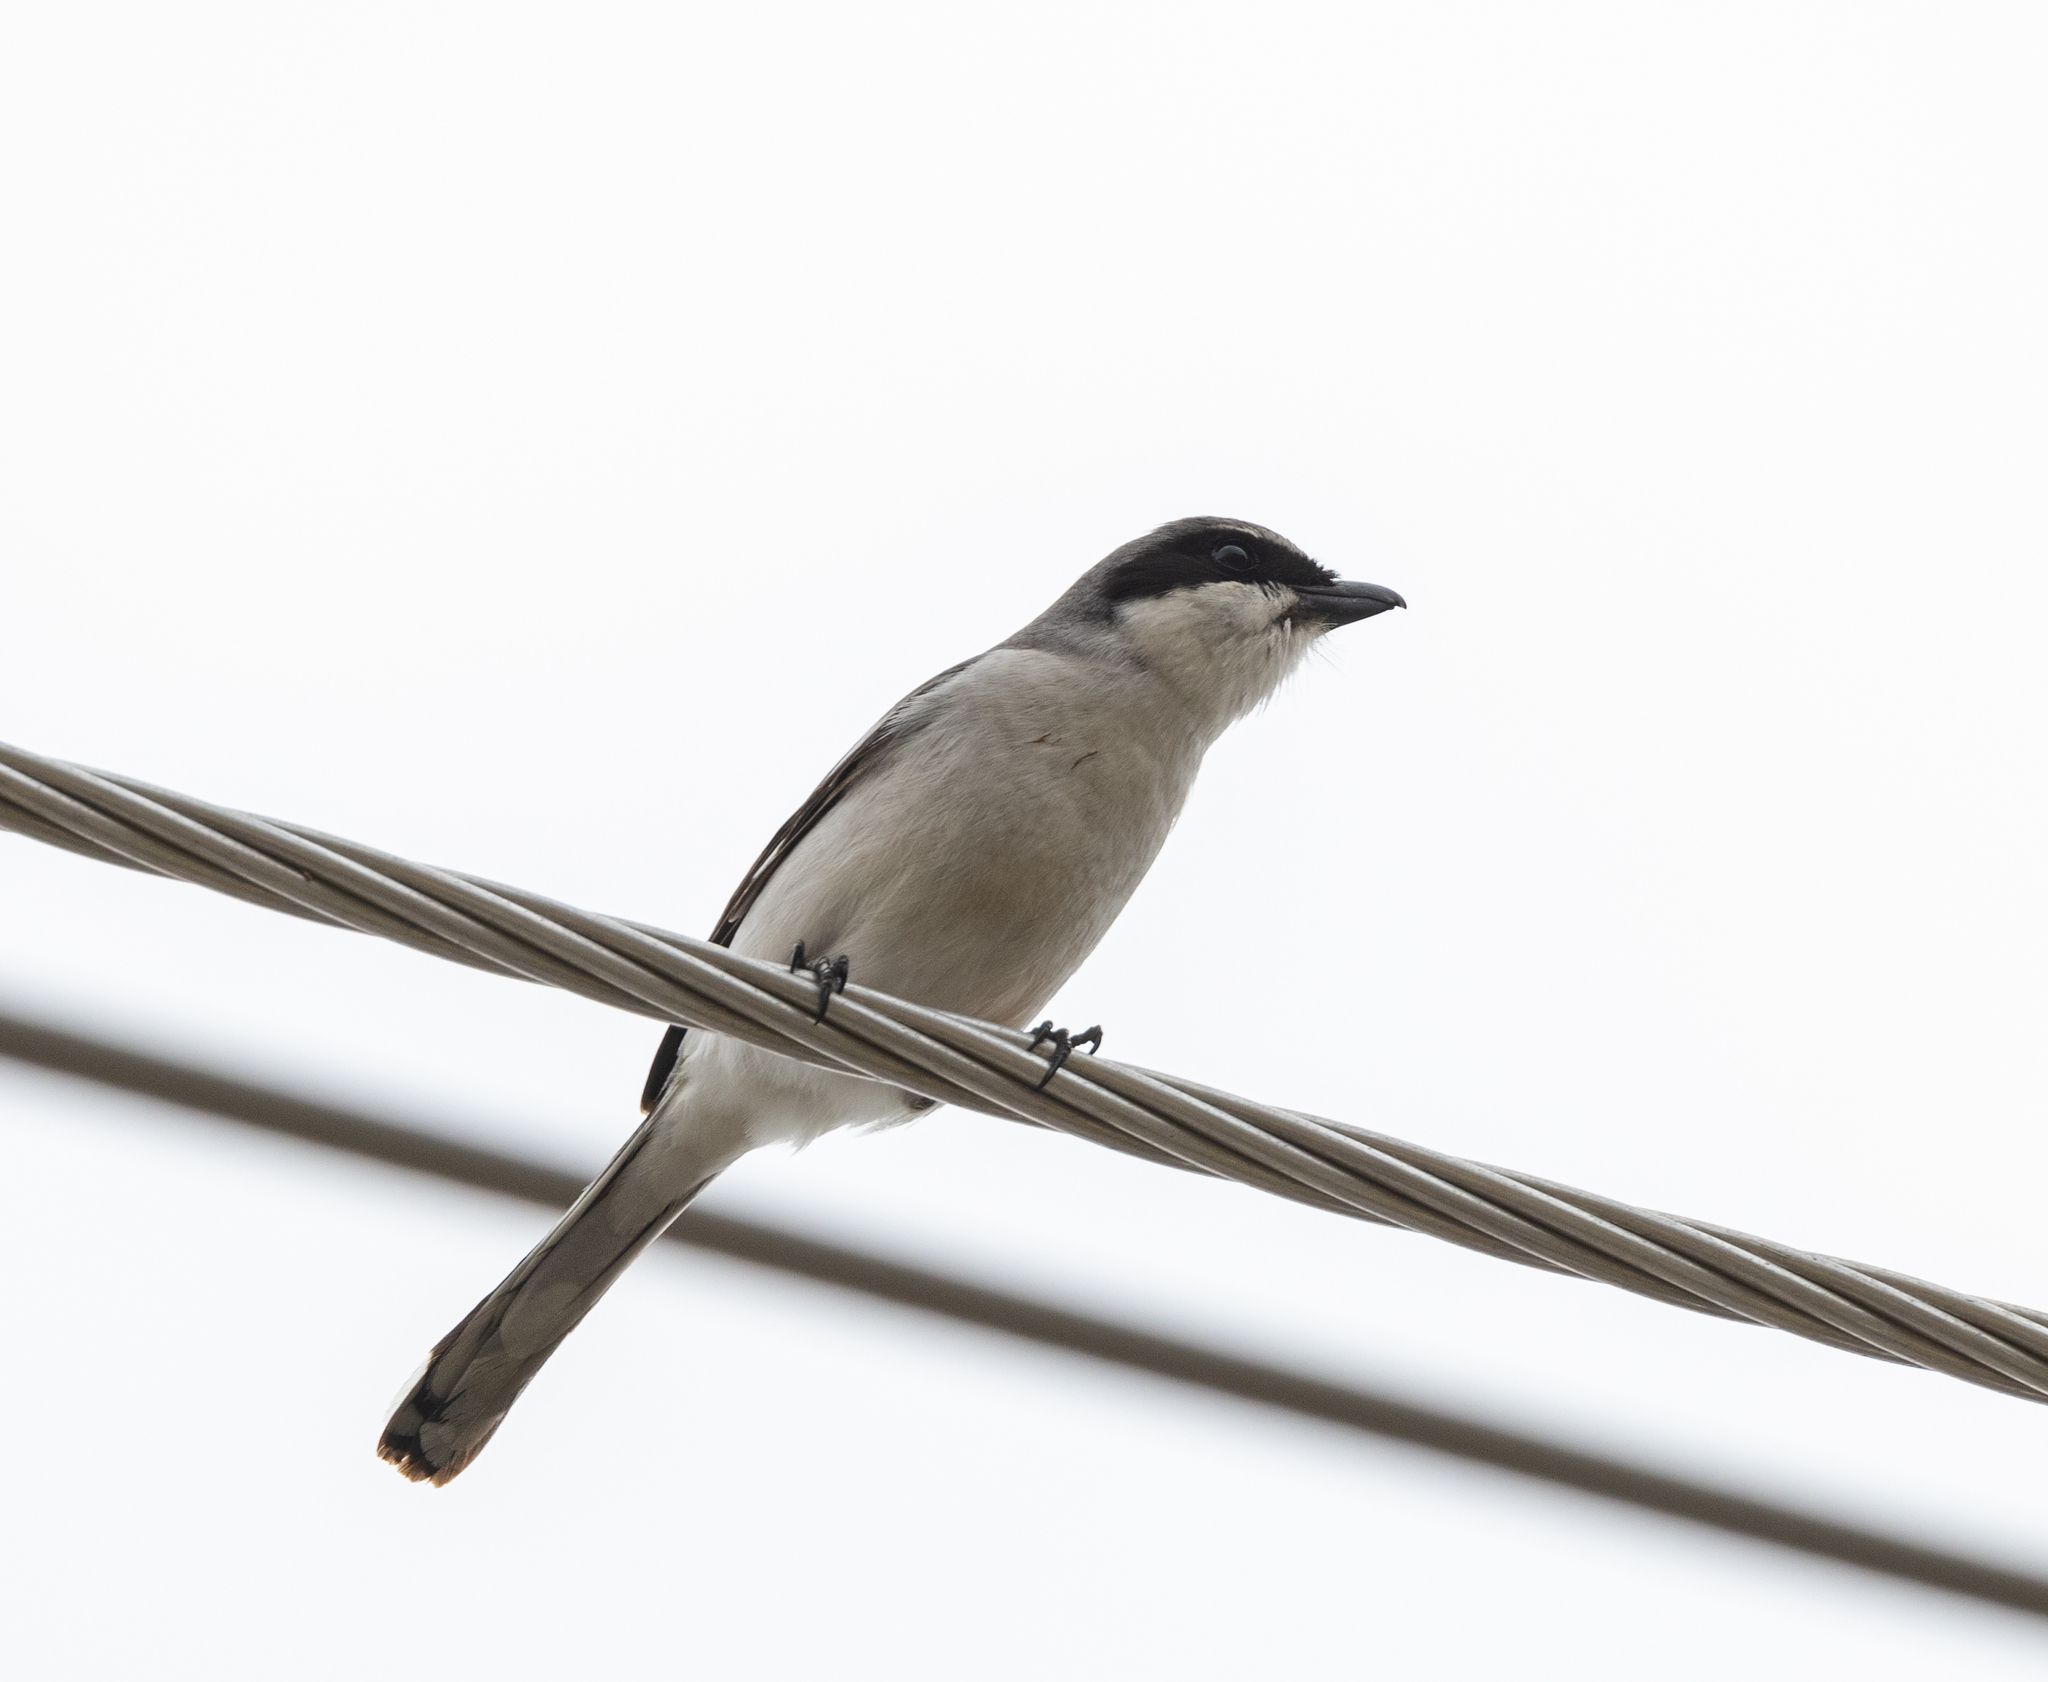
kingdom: Animalia
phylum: Chordata
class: Aves
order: Passeriformes
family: Laniidae
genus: Lanius
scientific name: Lanius ludovicianus
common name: Loggerhead shrike
